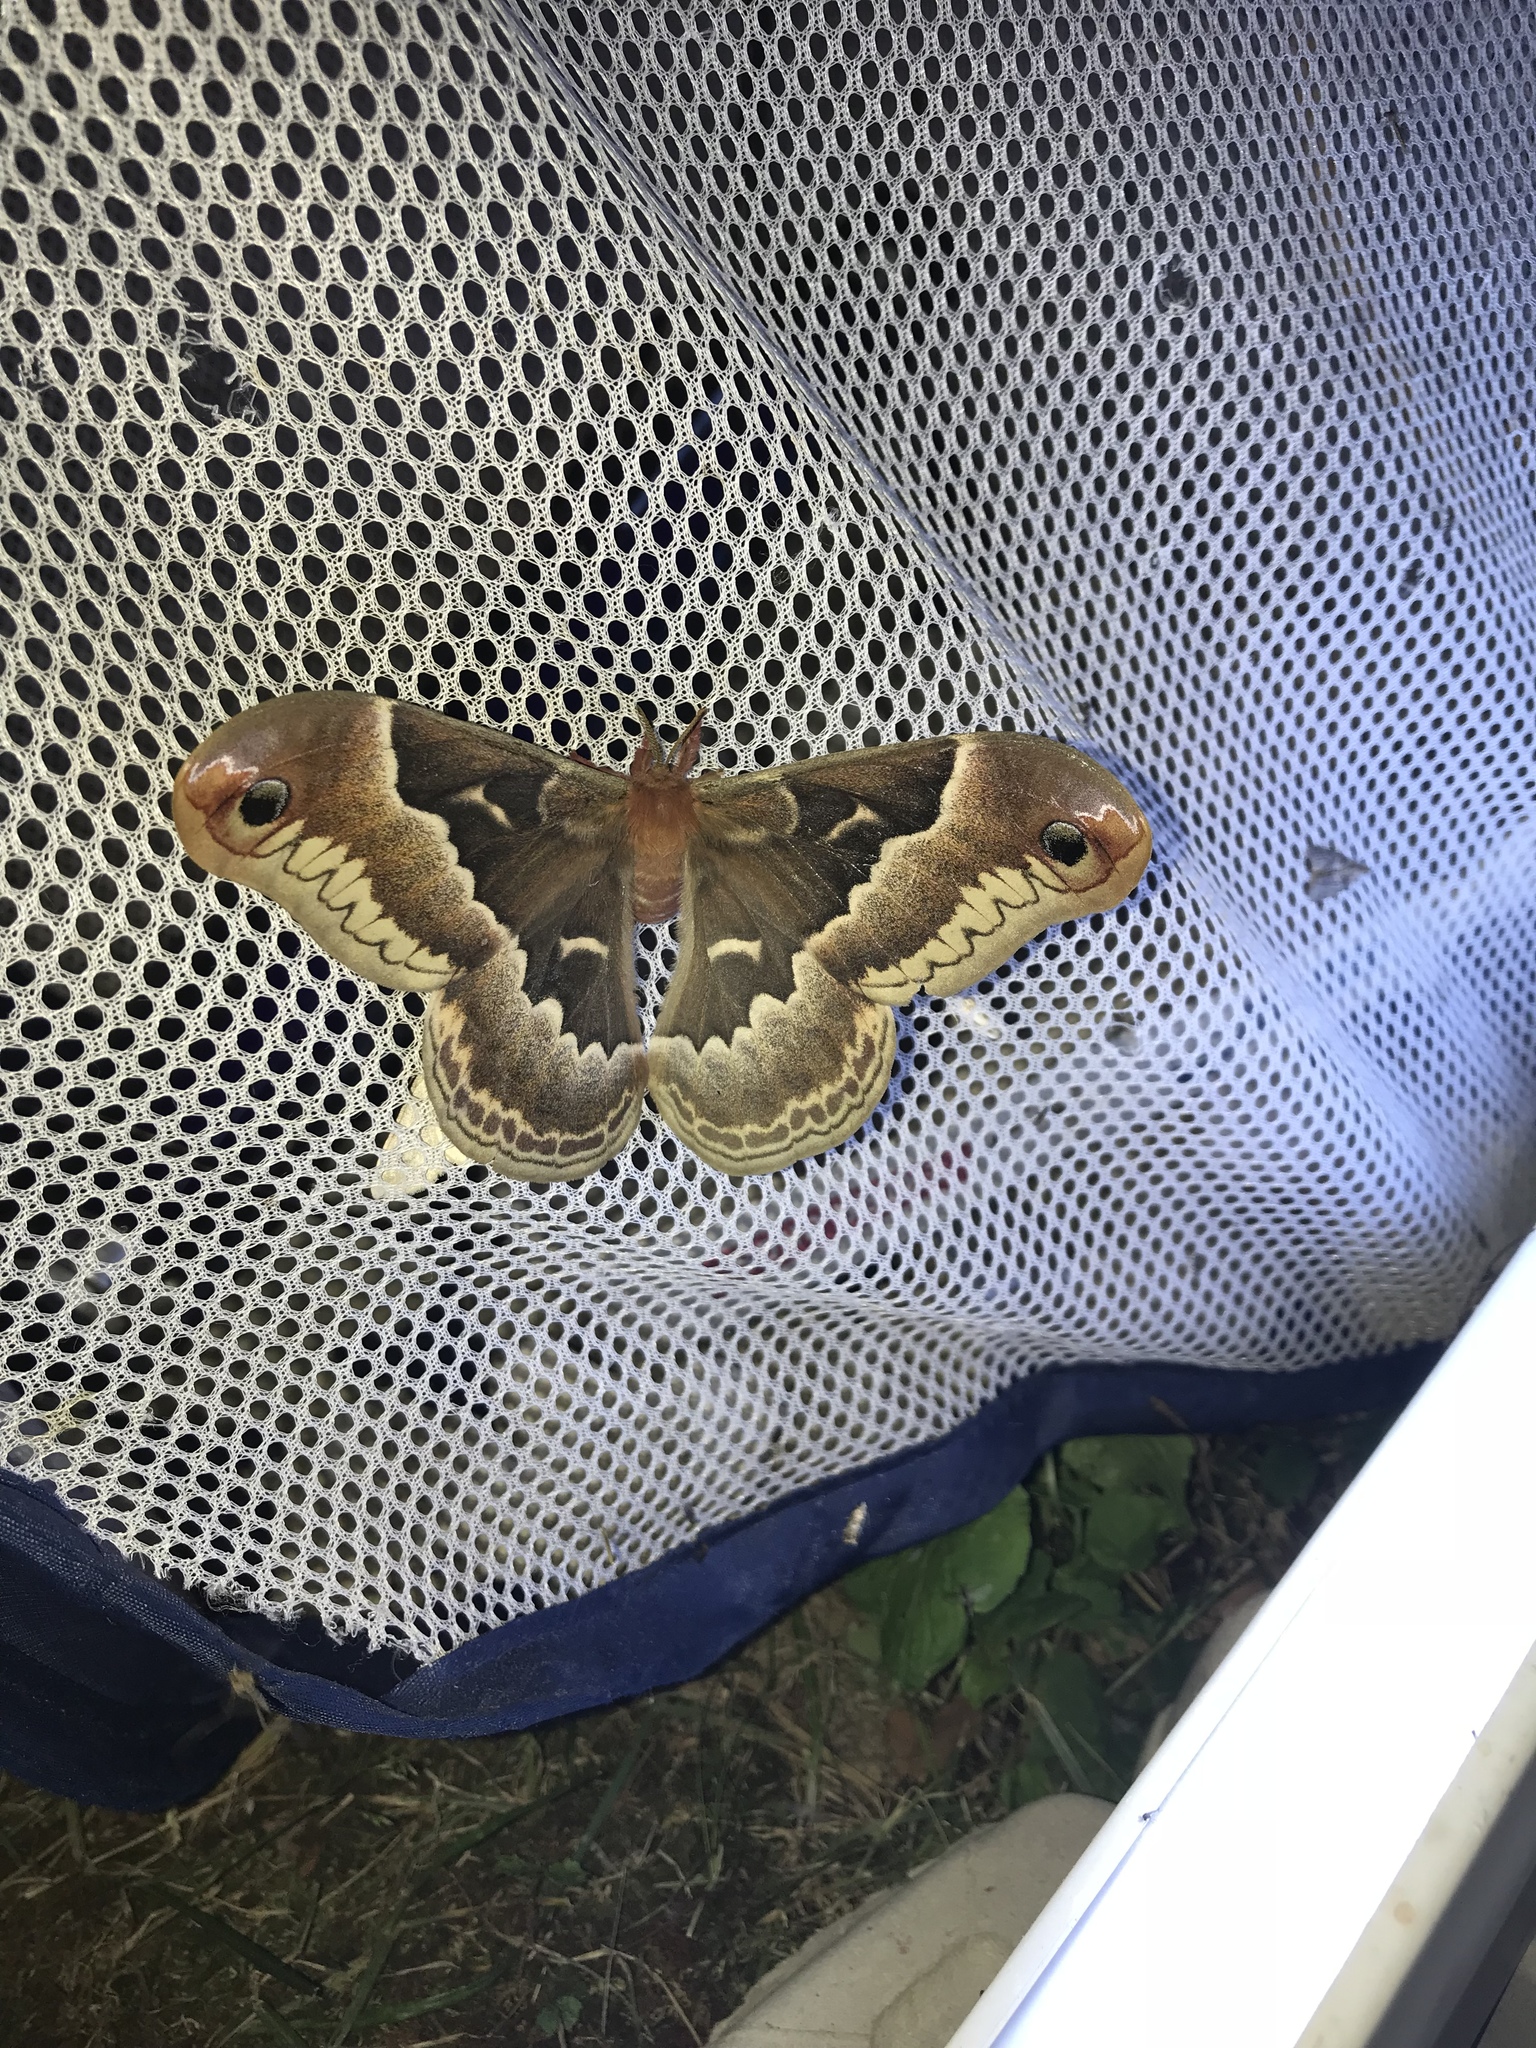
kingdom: Animalia
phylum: Arthropoda
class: Insecta
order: Lepidoptera
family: Saturniidae
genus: Callosamia
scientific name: Callosamia promethea
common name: Promethea silkmoth
